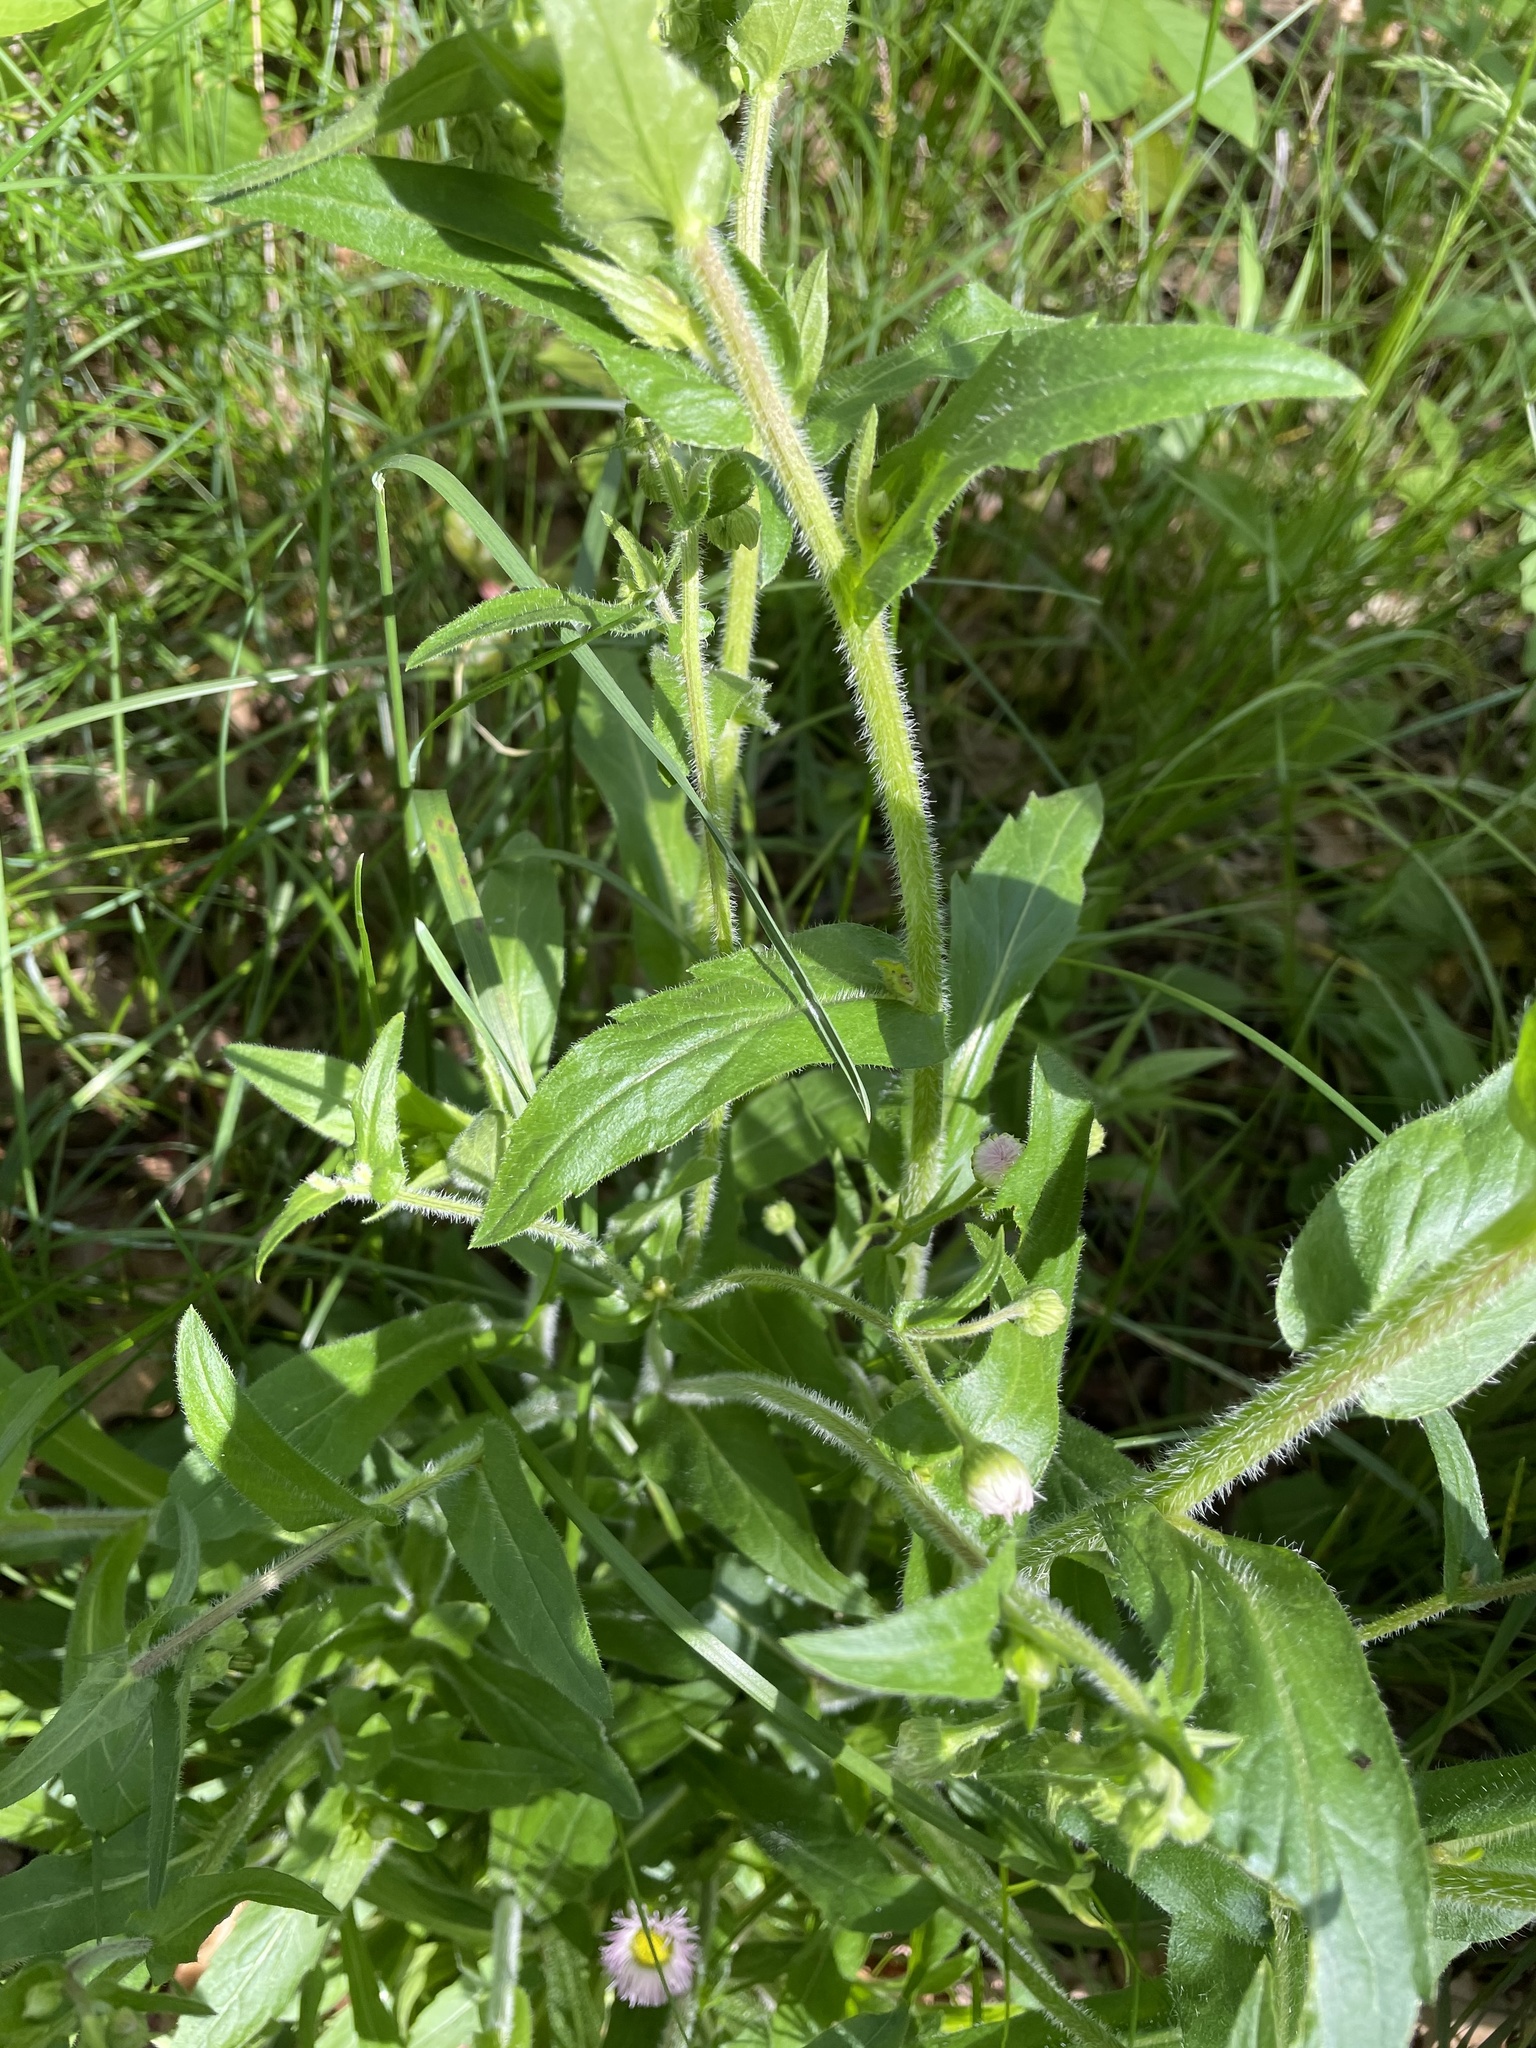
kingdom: Plantae
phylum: Tracheophyta
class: Magnoliopsida
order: Asterales
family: Asteraceae
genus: Erigeron
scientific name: Erigeron philadelphicus
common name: Robin's-plantain
